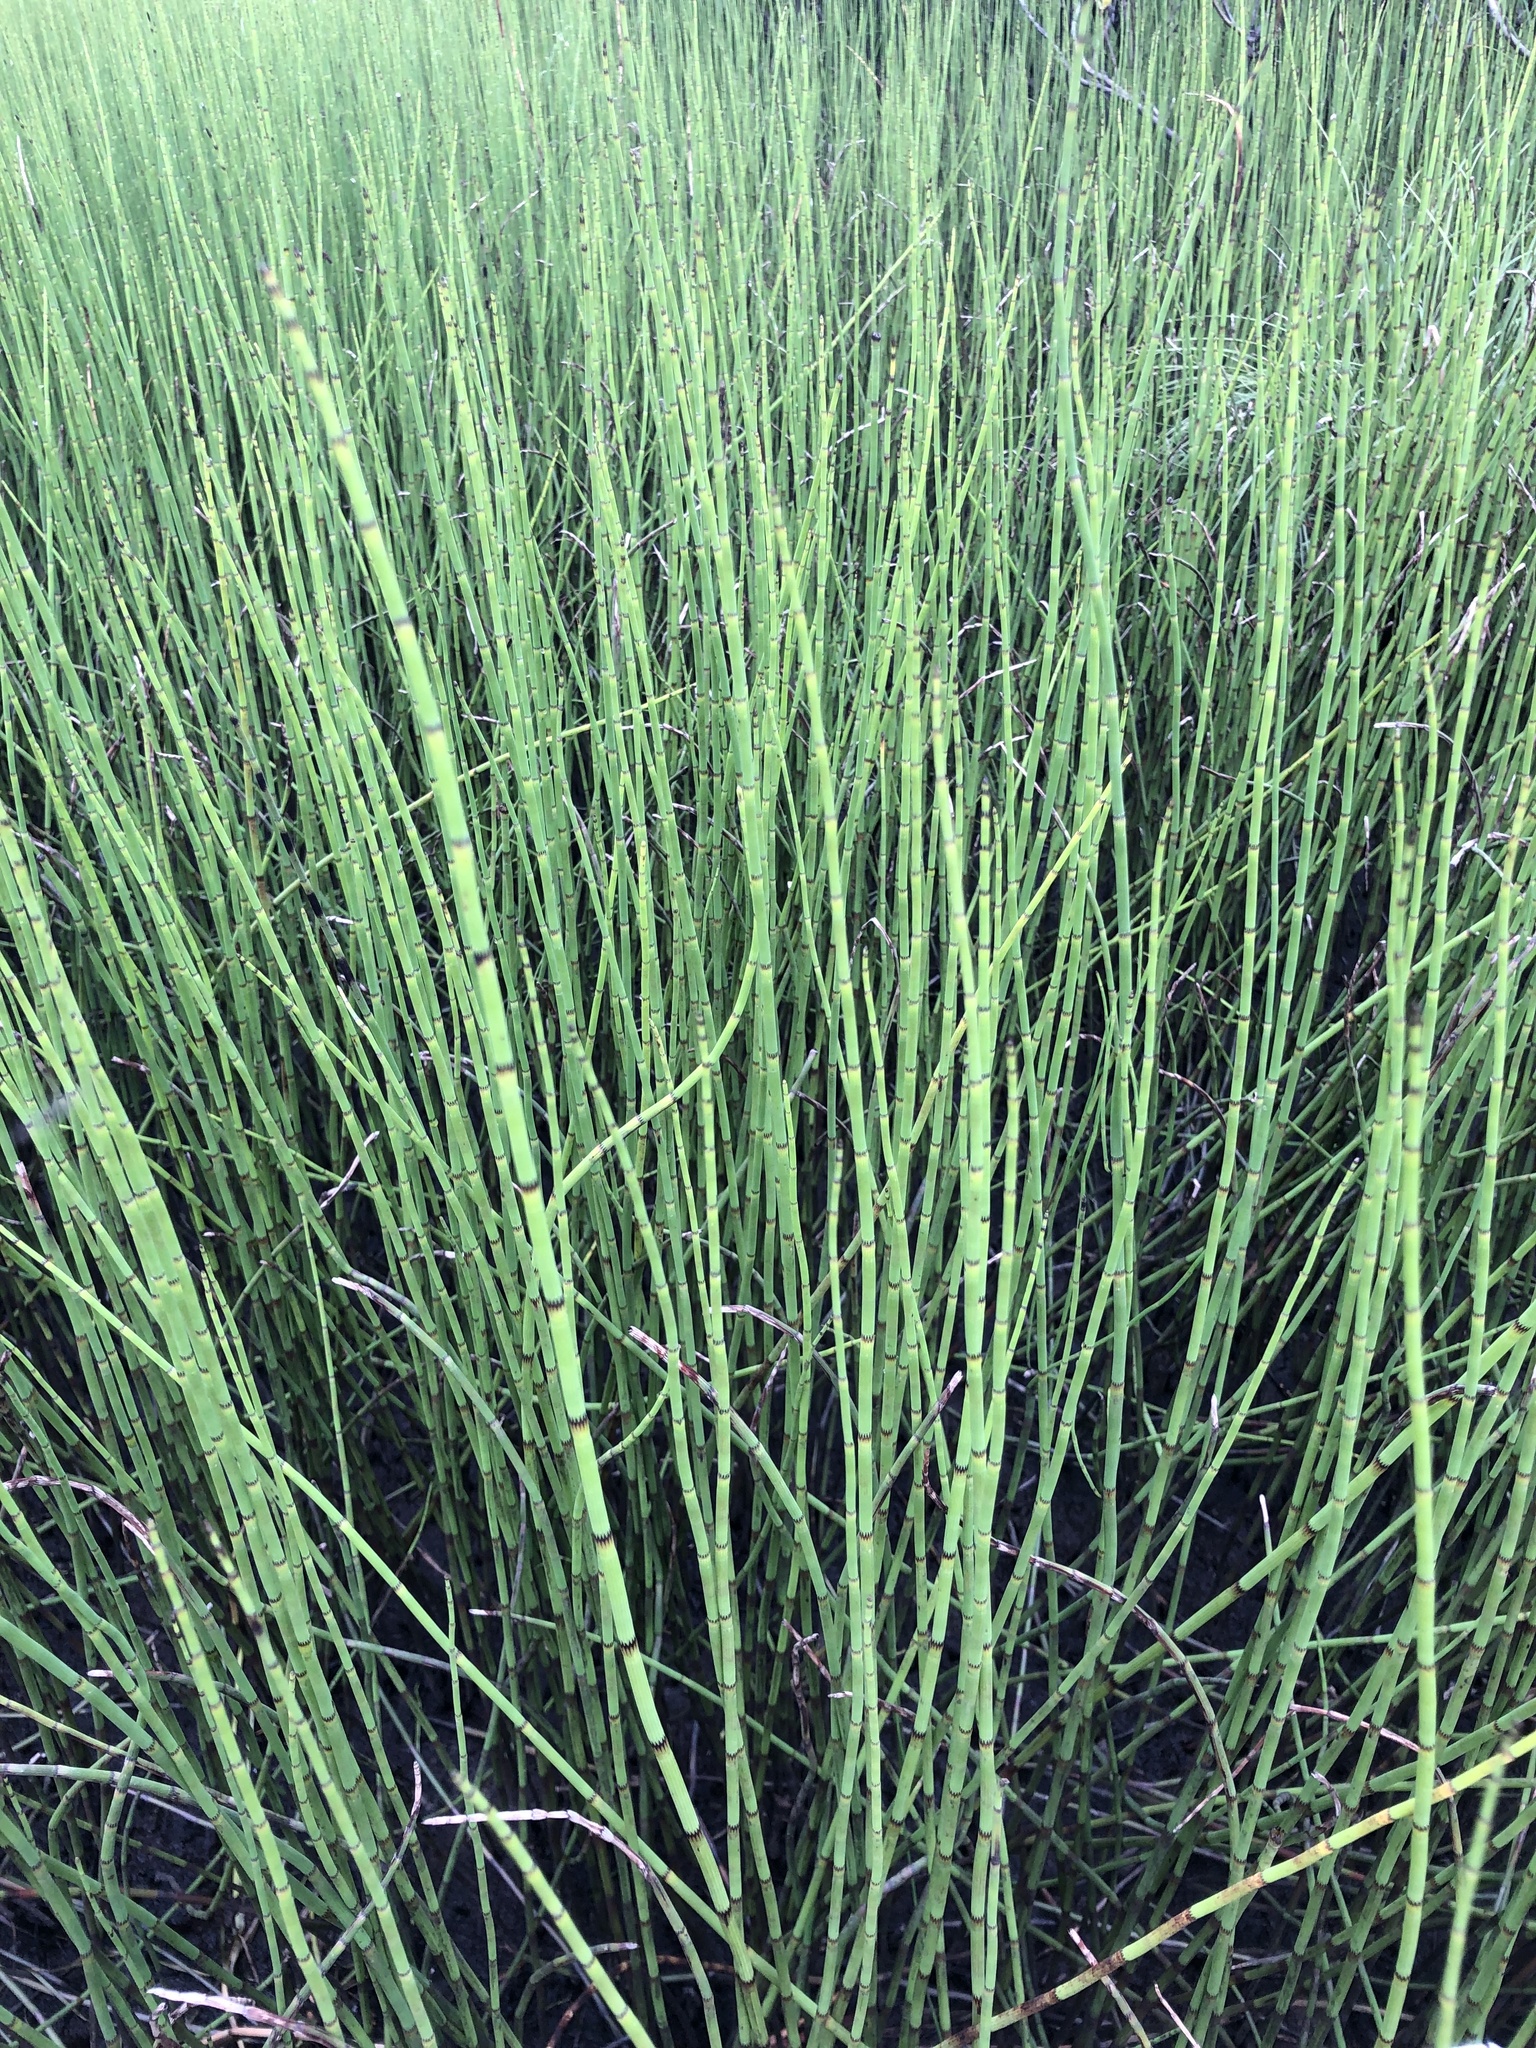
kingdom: Plantae
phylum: Tracheophyta
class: Polypodiopsida
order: Equisetales
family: Equisetaceae
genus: Equisetum
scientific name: Equisetum fluviatile
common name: Water horsetail
